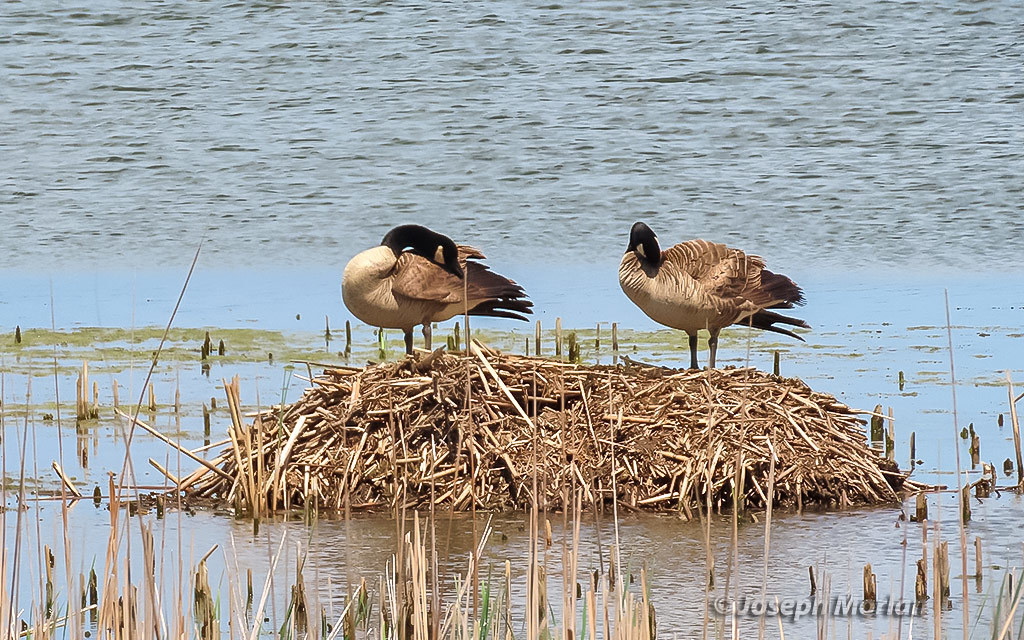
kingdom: Animalia
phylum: Chordata
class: Aves
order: Anseriformes
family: Anatidae
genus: Branta
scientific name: Branta canadensis
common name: Canada goose
